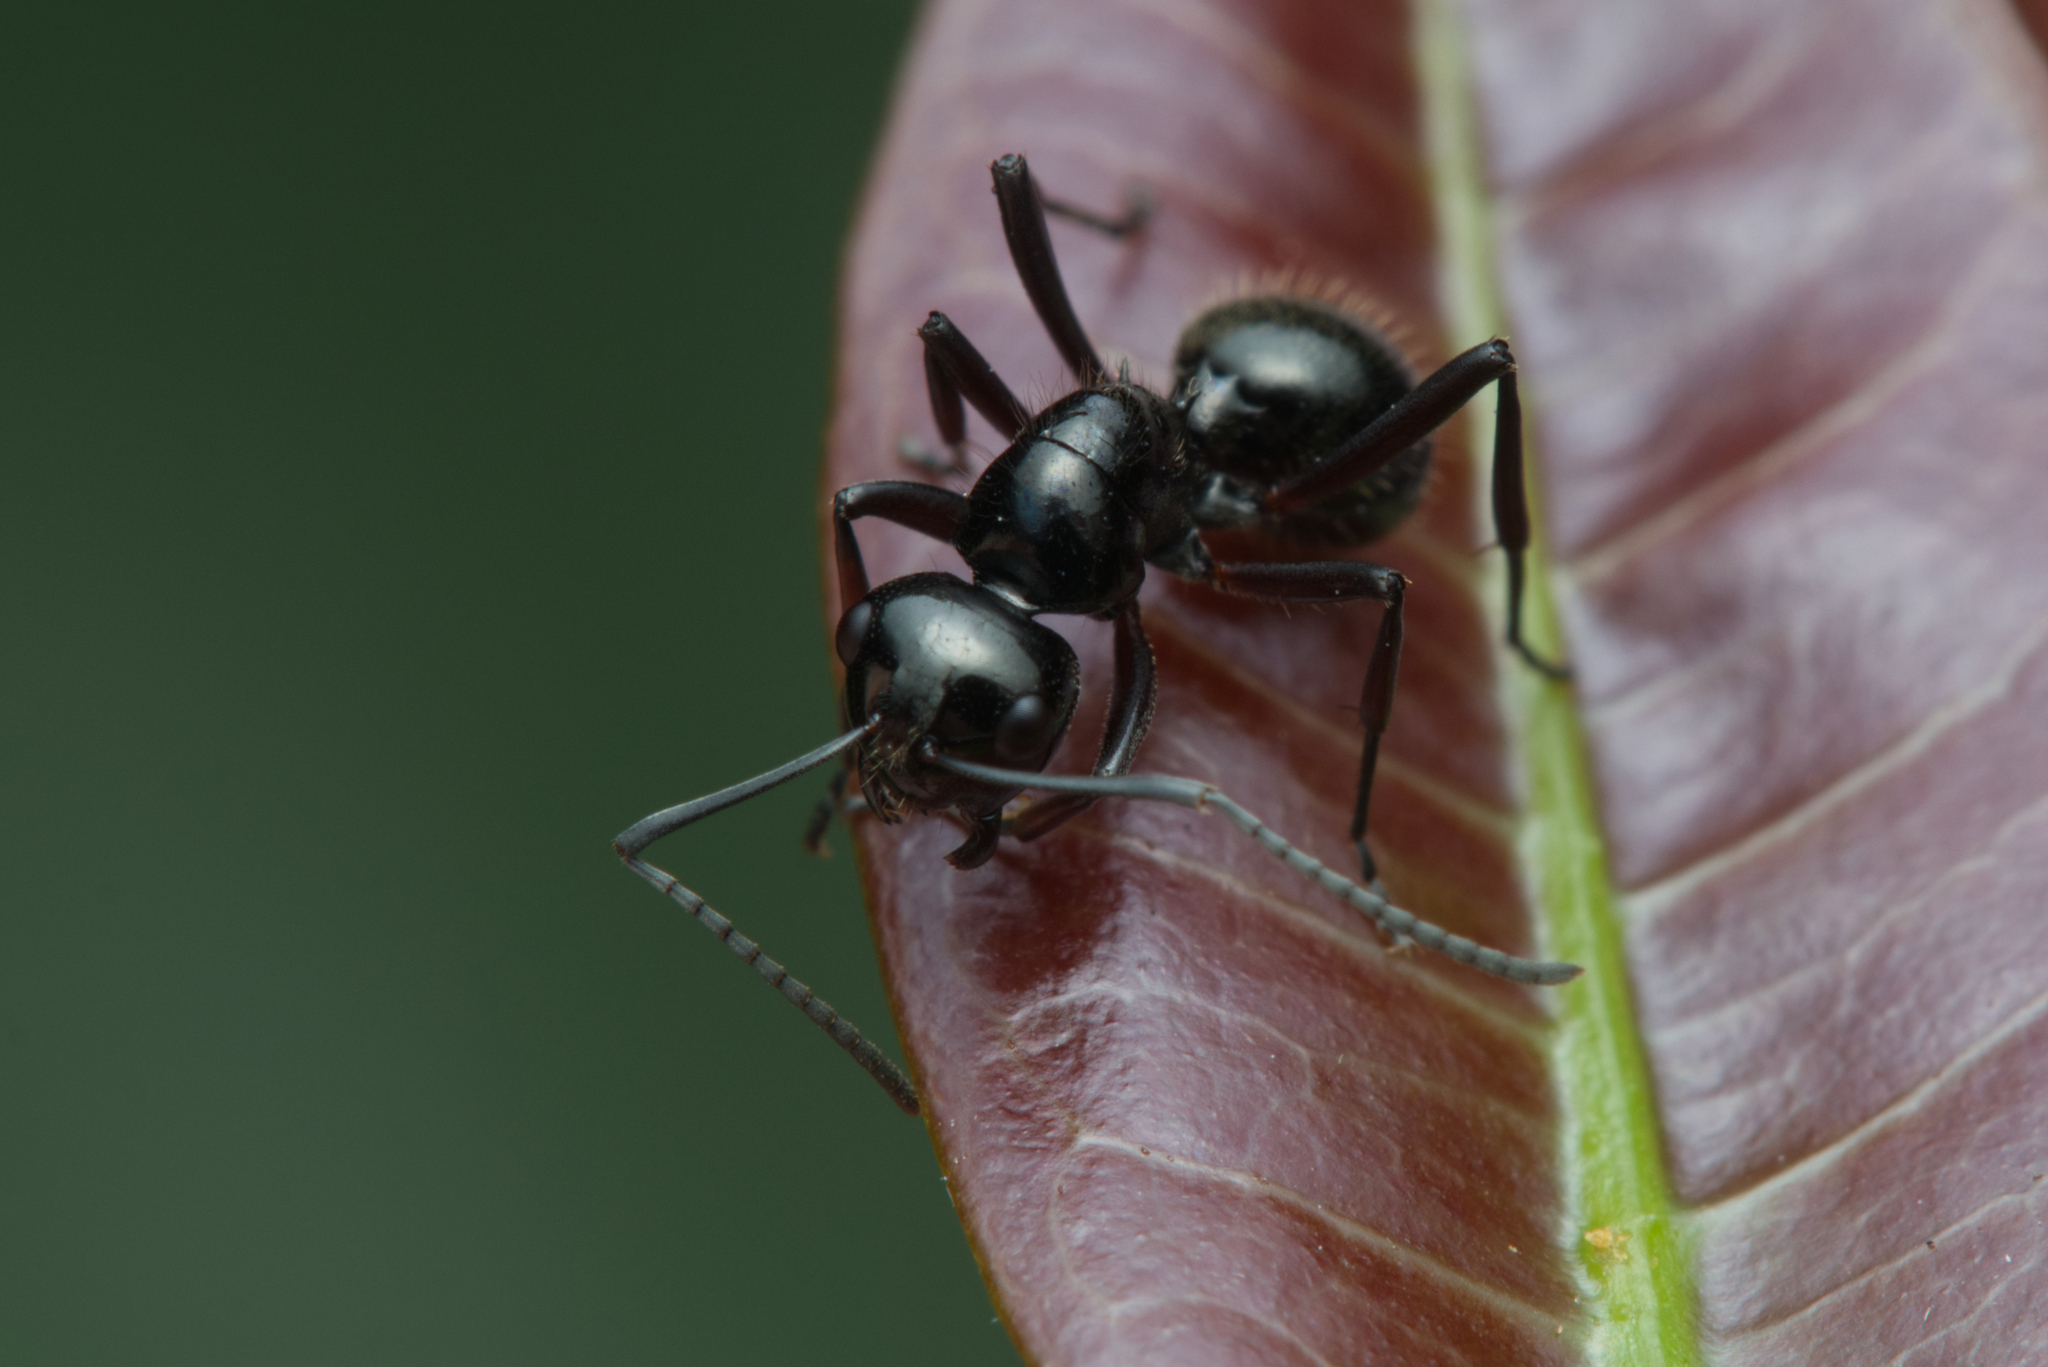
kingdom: Animalia
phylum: Arthropoda
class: Insecta
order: Hymenoptera
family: Formicidae
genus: Polyrhachis
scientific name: Polyrhachis monteithi
